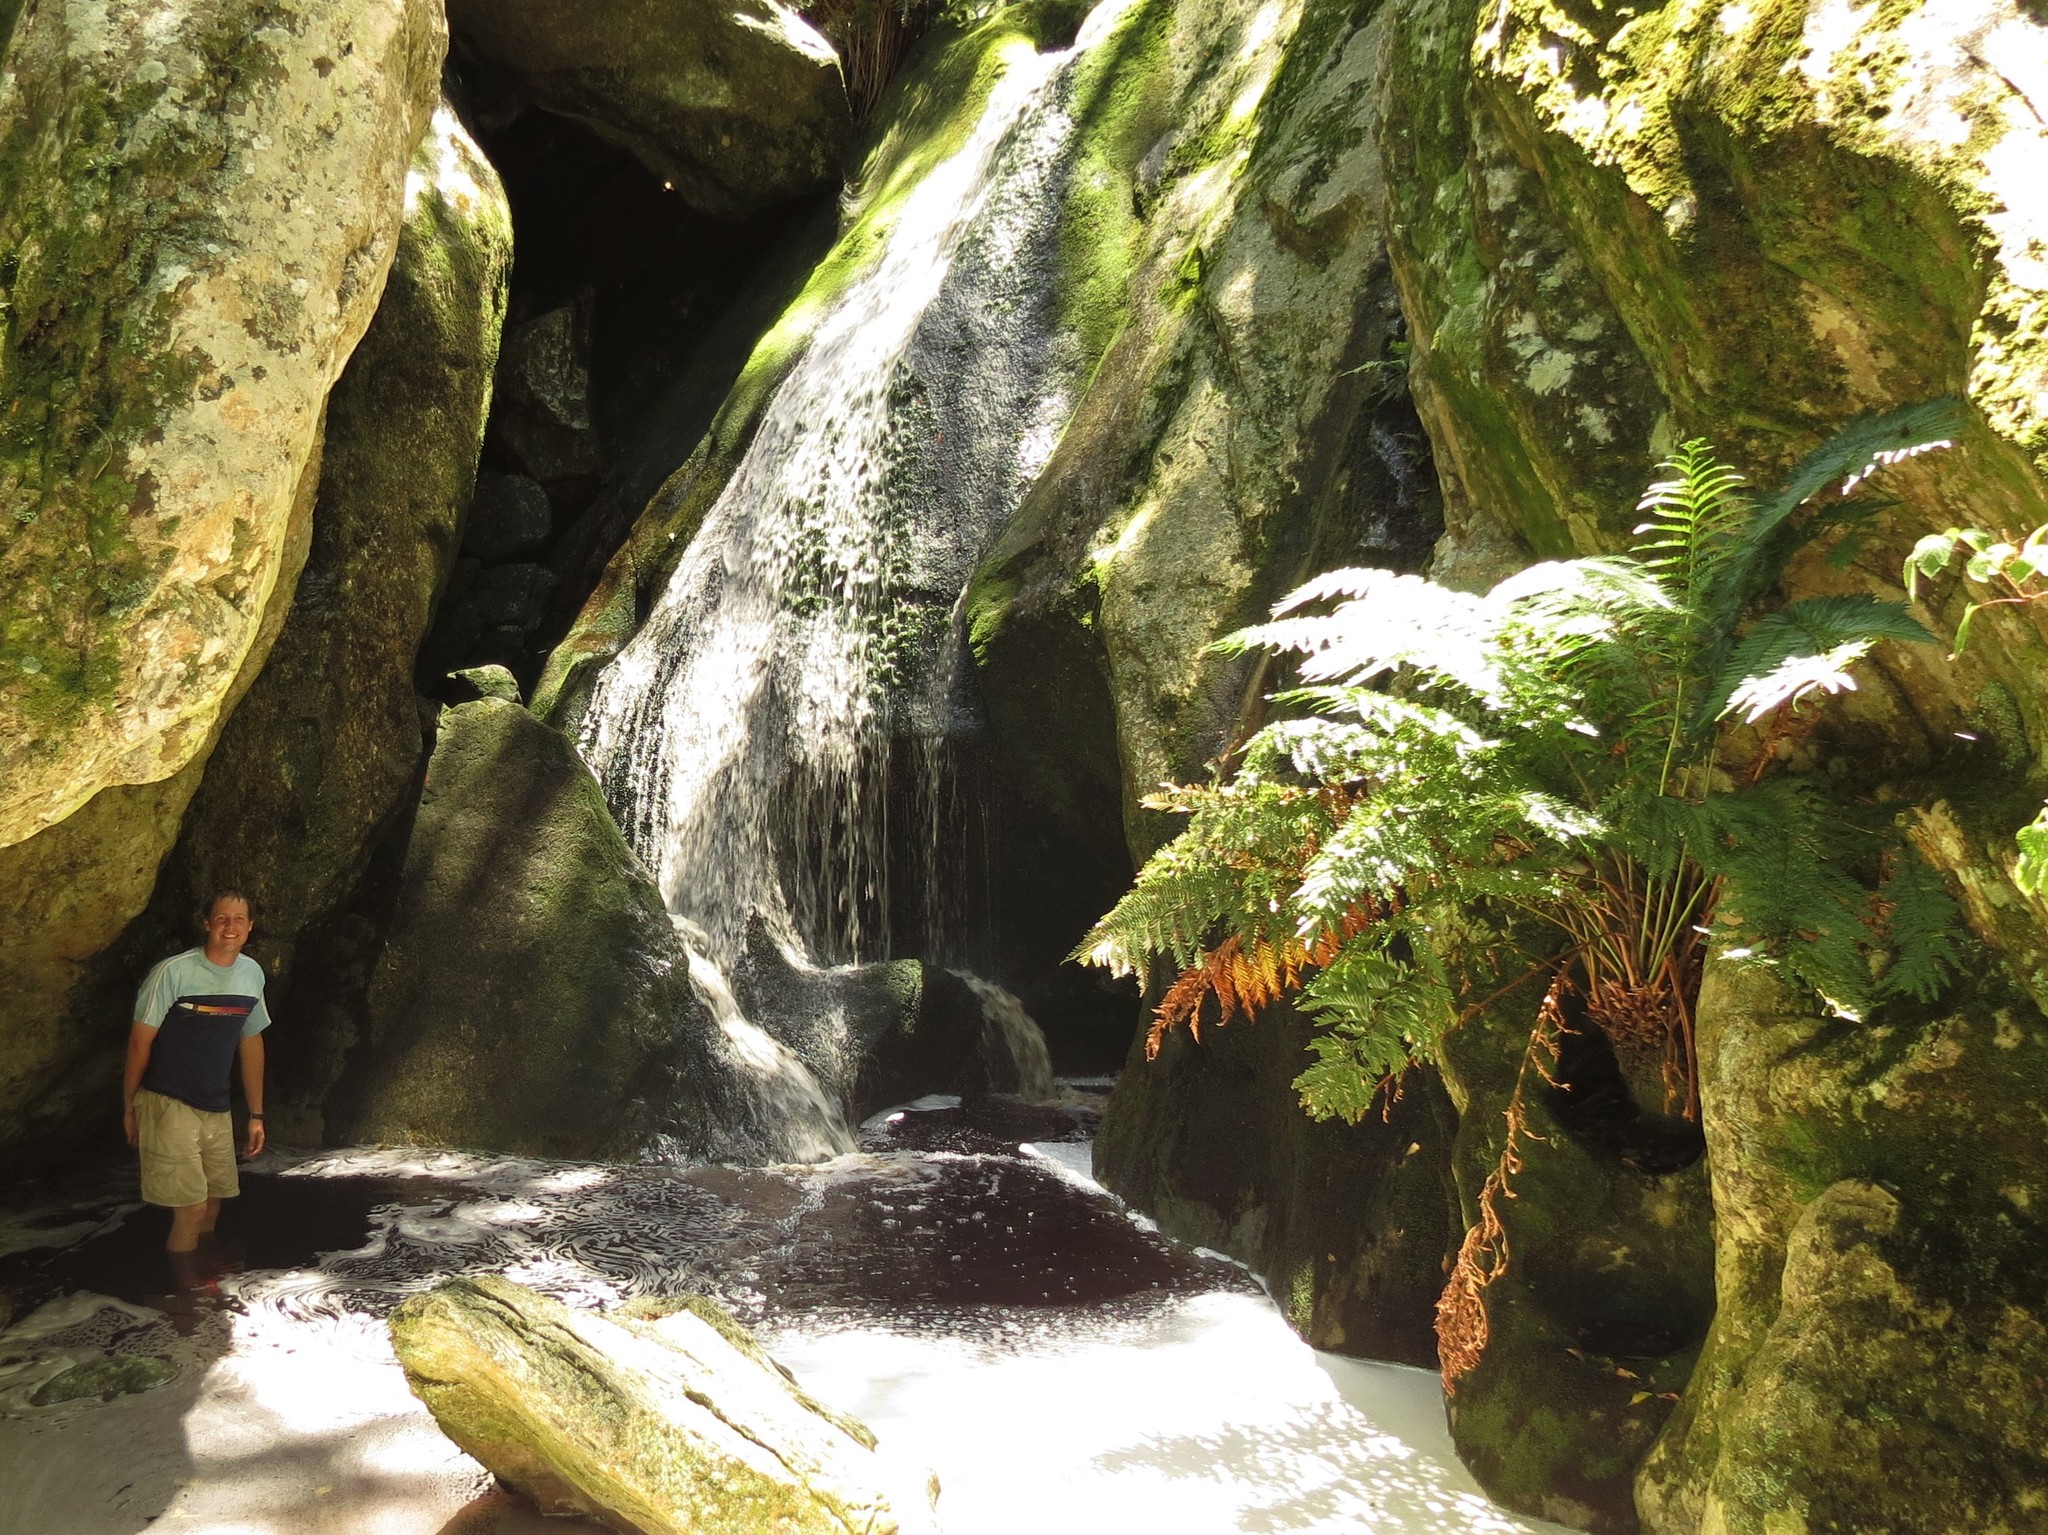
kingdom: Plantae
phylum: Tracheophyta
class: Polypodiopsida
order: Osmundales
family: Osmundaceae
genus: Todea
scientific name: Todea barbara
